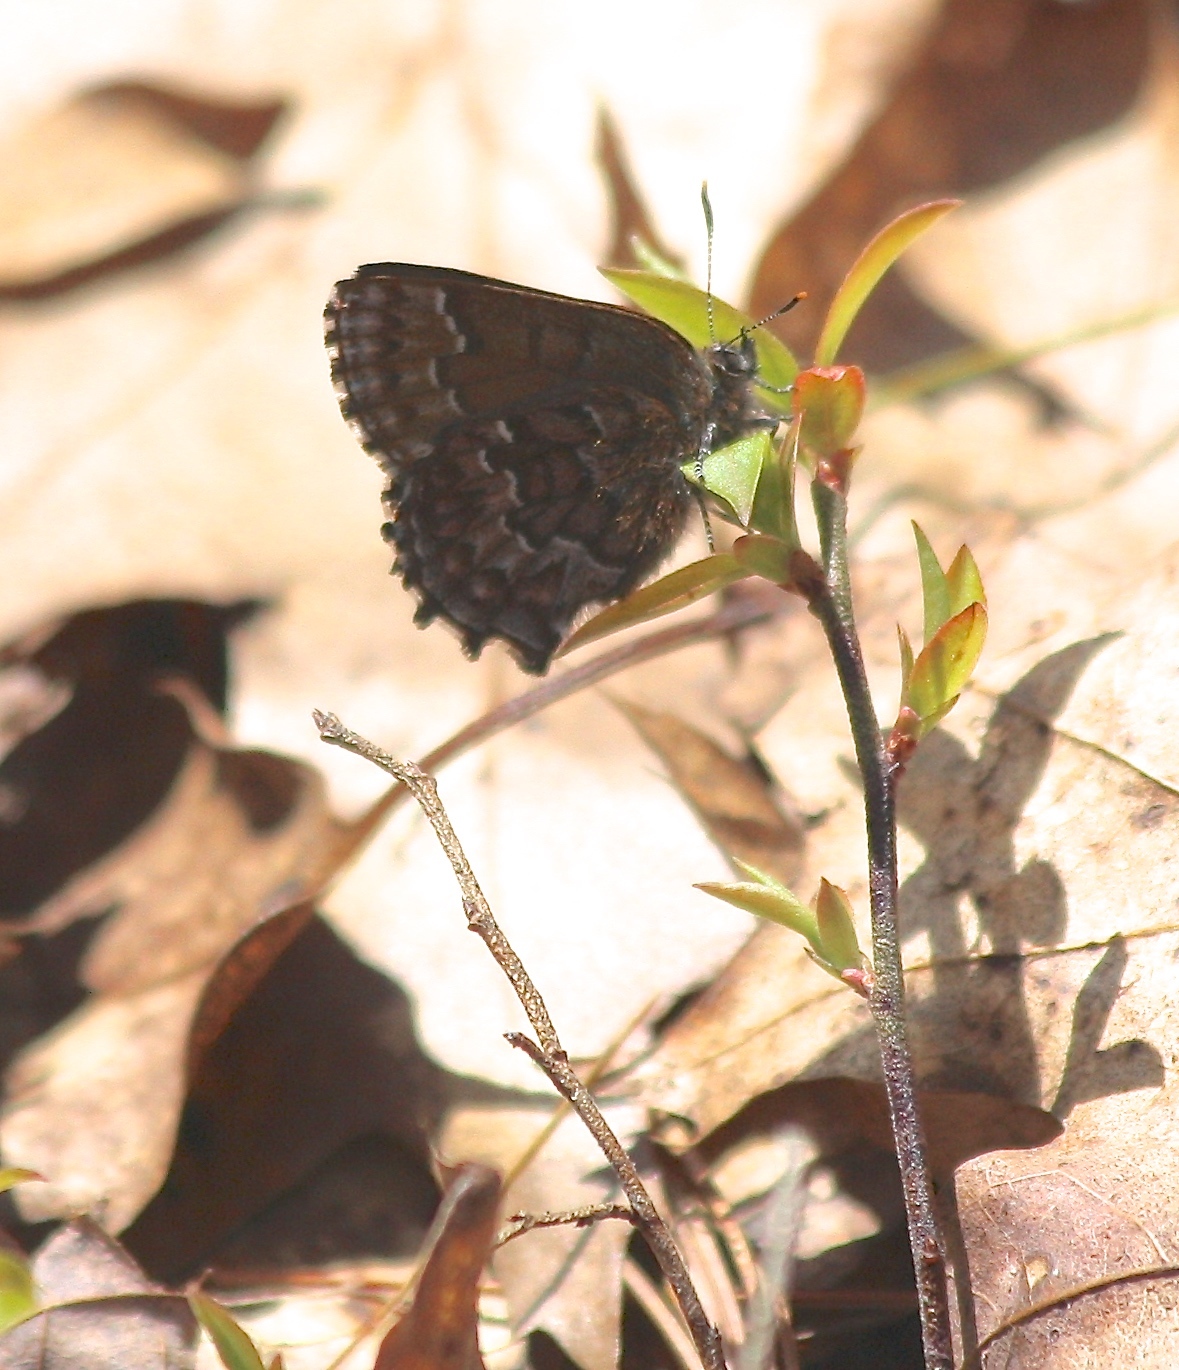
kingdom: Animalia
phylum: Arthropoda
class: Insecta
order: Lepidoptera
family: Lycaenidae
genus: Incisalia
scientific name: Incisalia niphon
